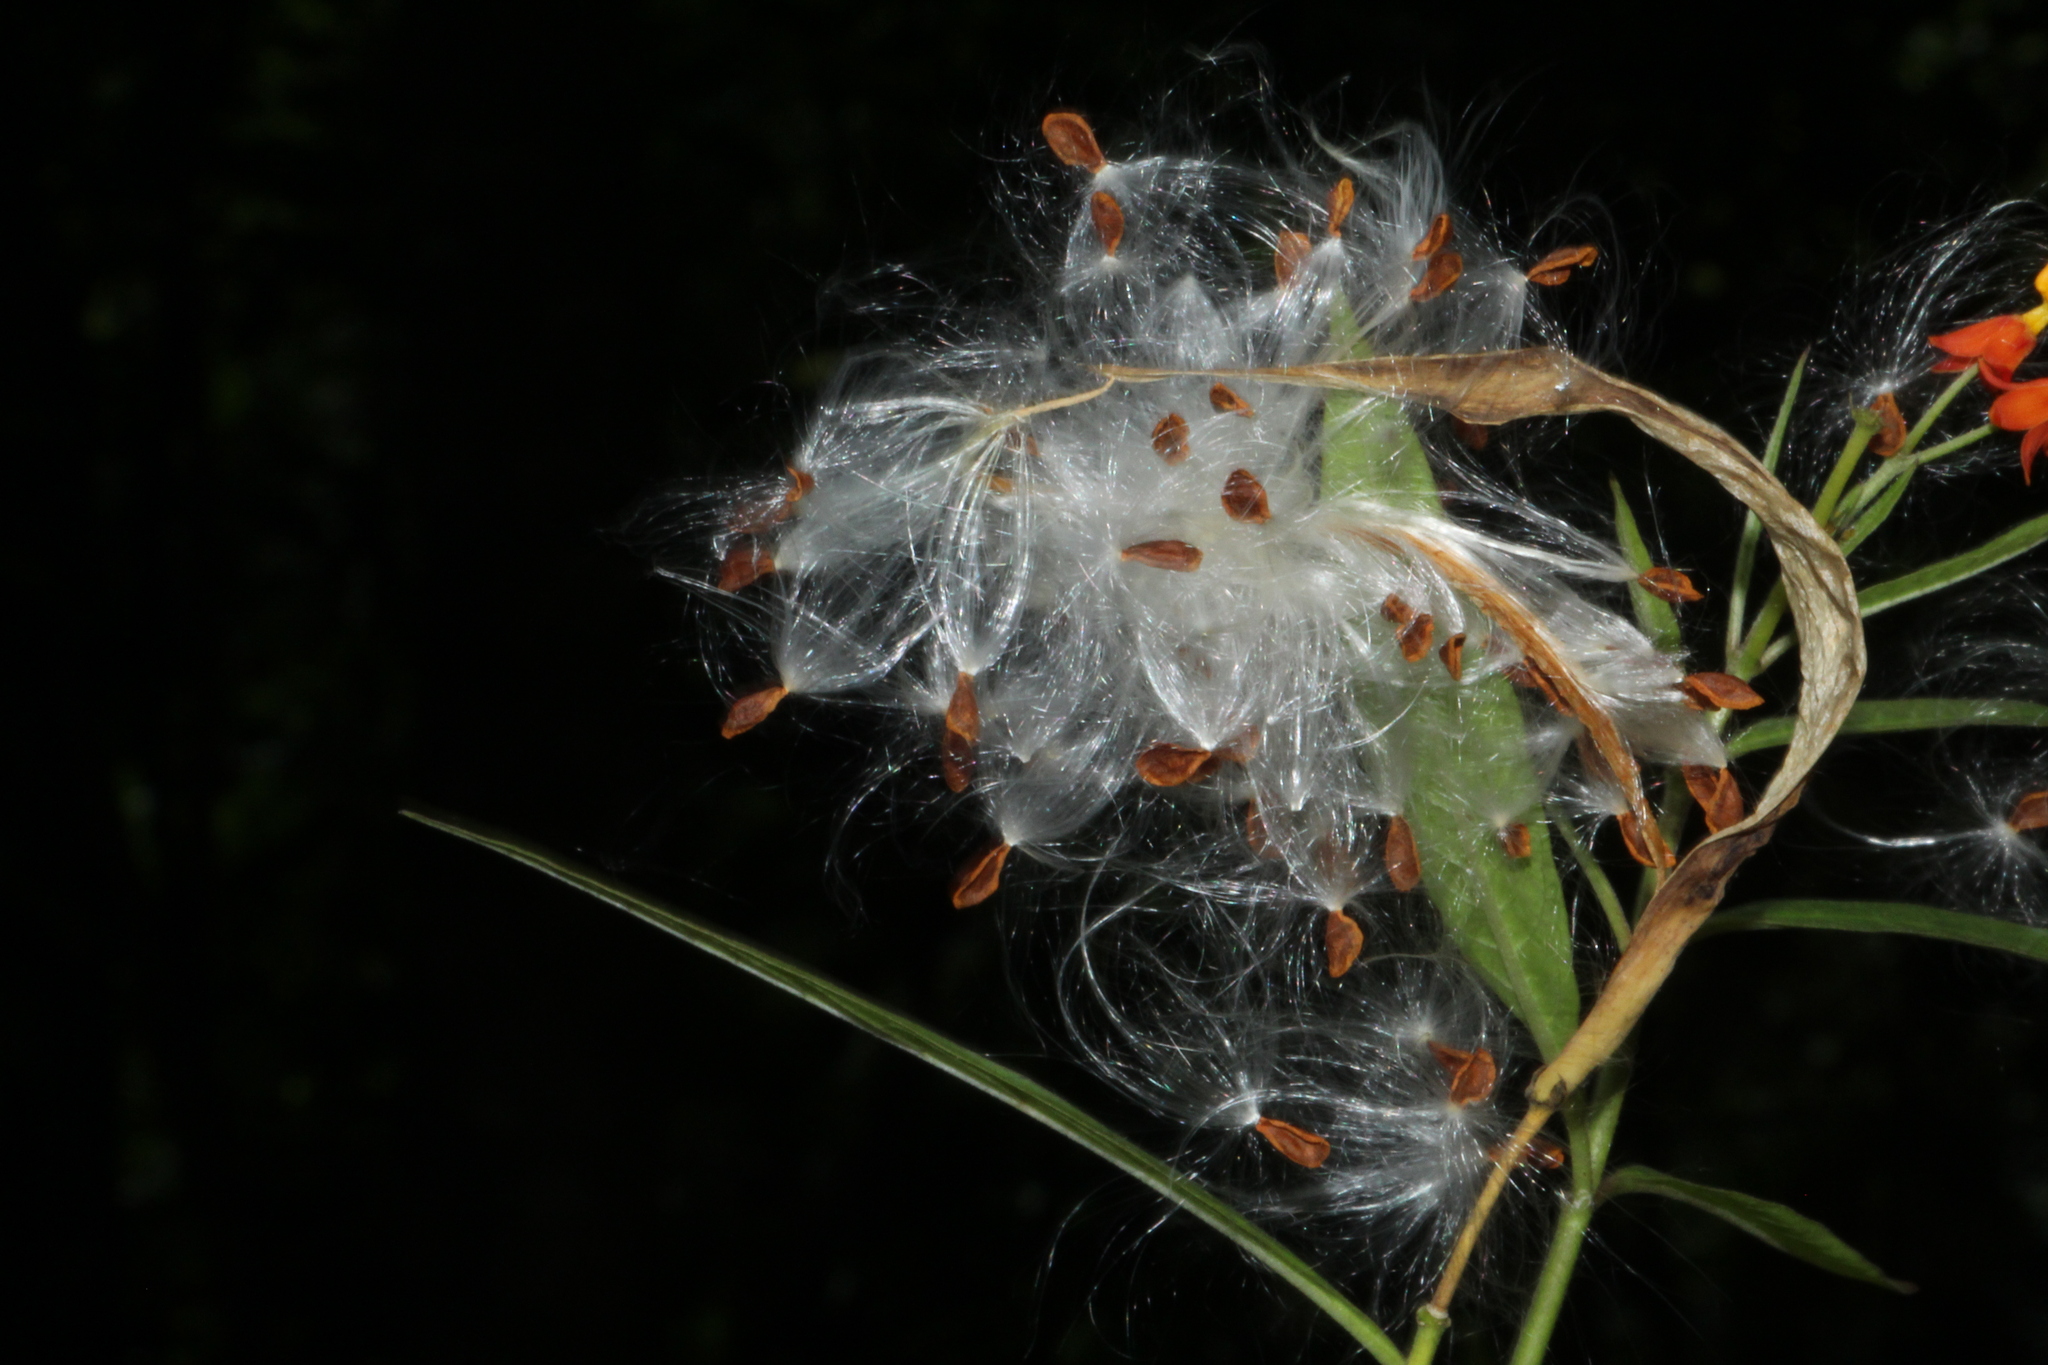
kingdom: Plantae
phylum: Tracheophyta
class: Magnoliopsida
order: Gentianales
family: Apocynaceae
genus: Asclepias
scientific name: Asclepias curassavica
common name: Bloodflower
